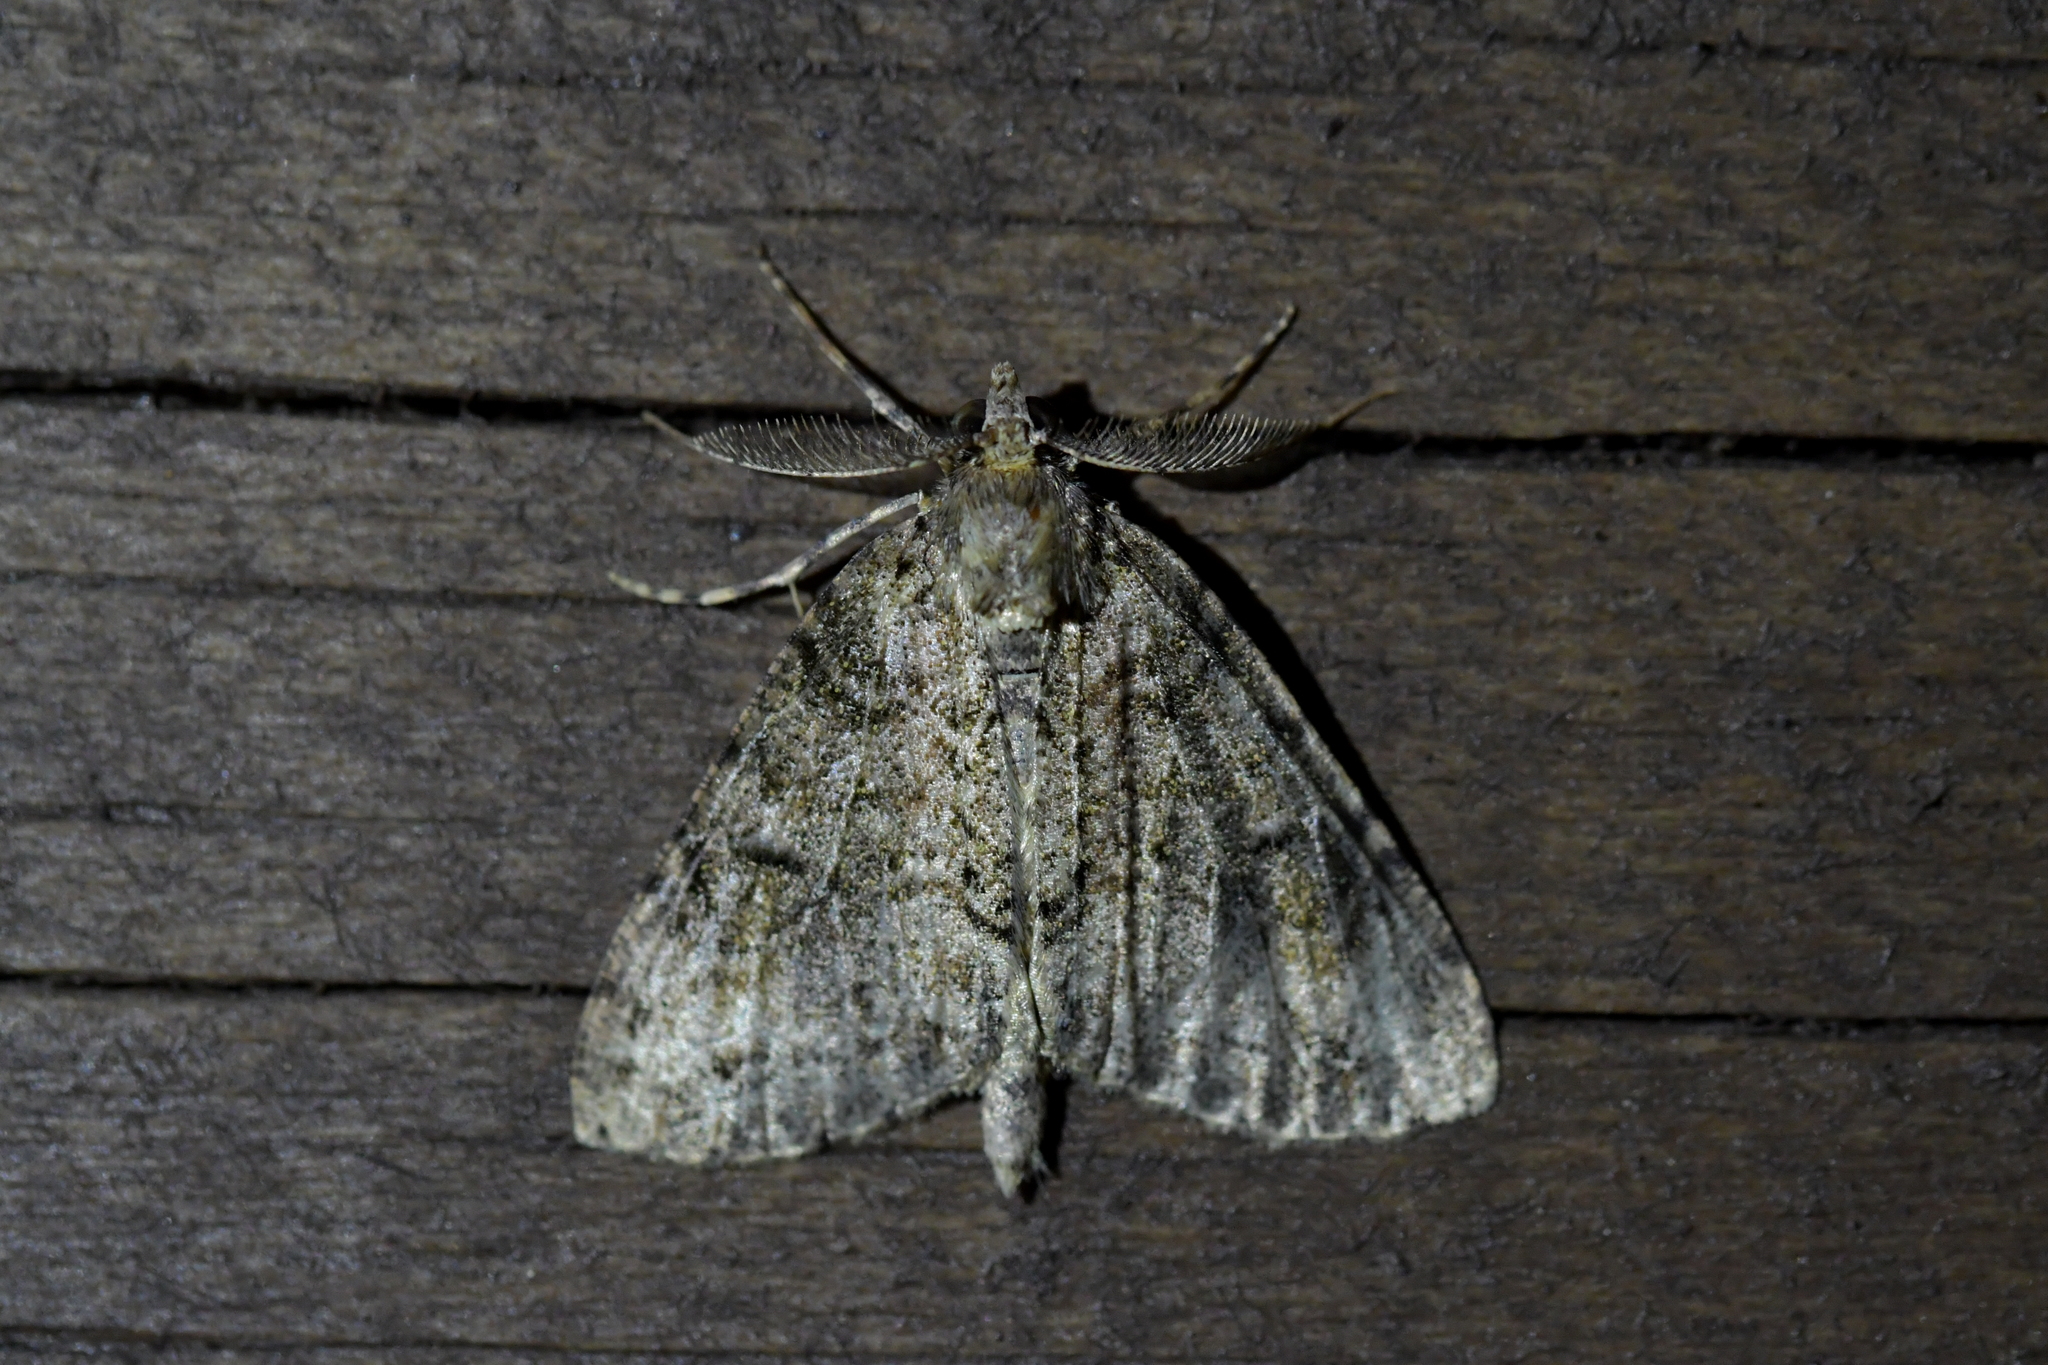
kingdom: Animalia
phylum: Arthropoda
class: Insecta
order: Lepidoptera
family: Geometridae
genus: Pseudocoremia
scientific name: Pseudocoremia suavis
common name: Common forest looper
